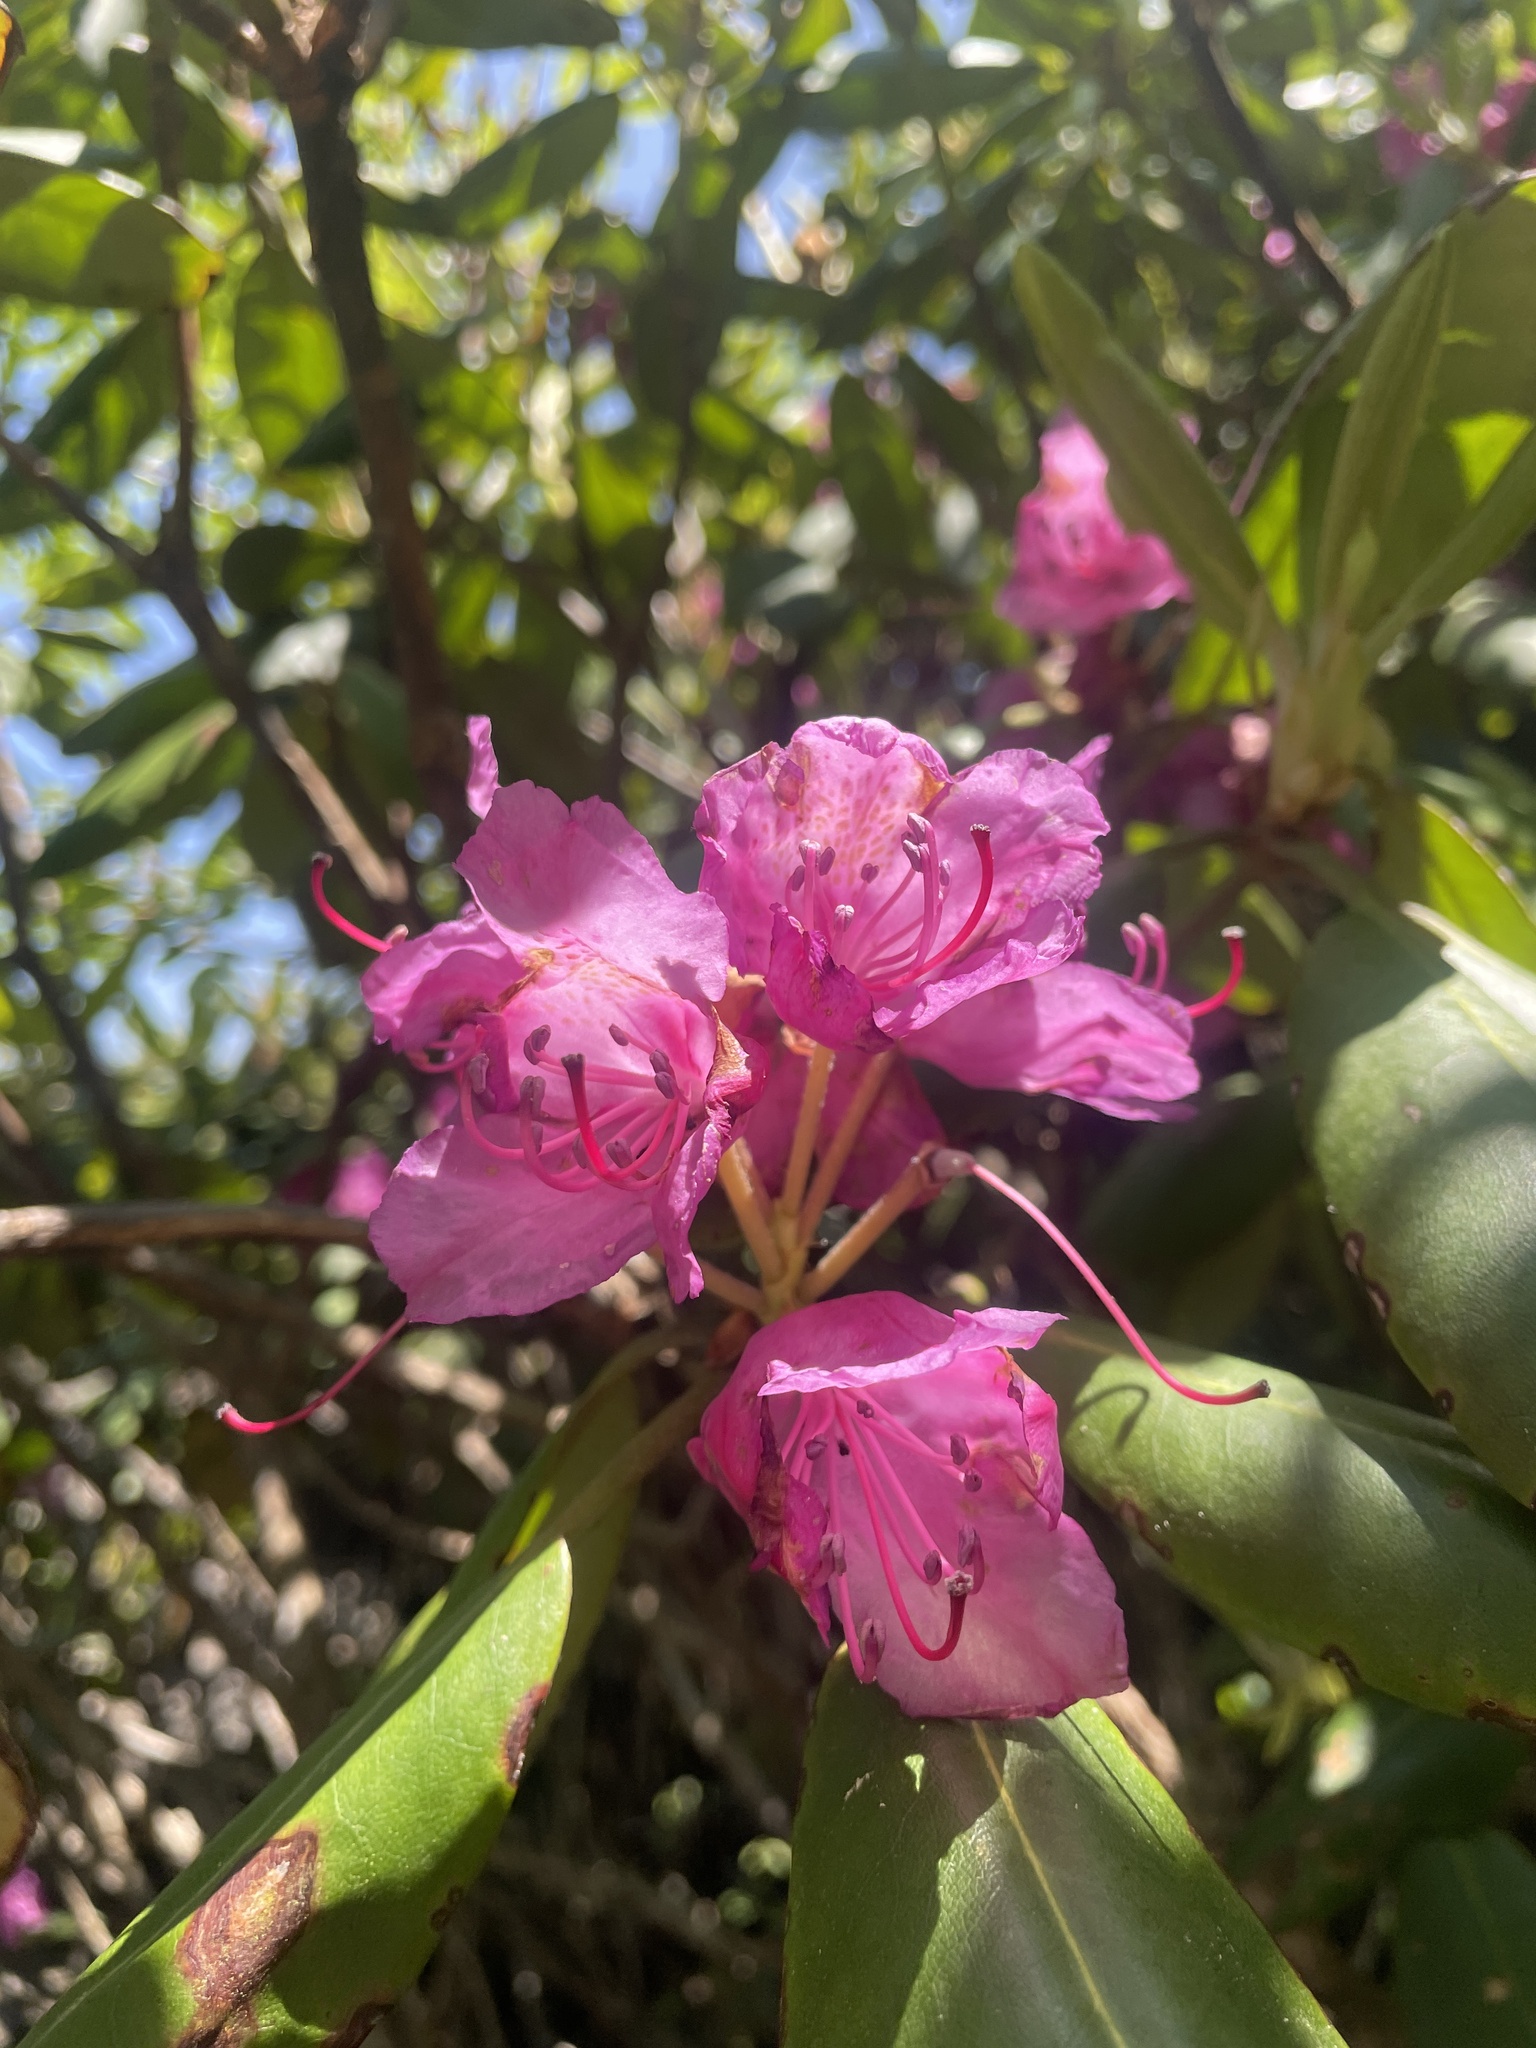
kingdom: Plantae
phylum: Tracheophyta
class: Magnoliopsida
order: Ericales
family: Ericaceae
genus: Rhododendron
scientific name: Rhododendron catawbiense
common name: Catawba rhododendron
